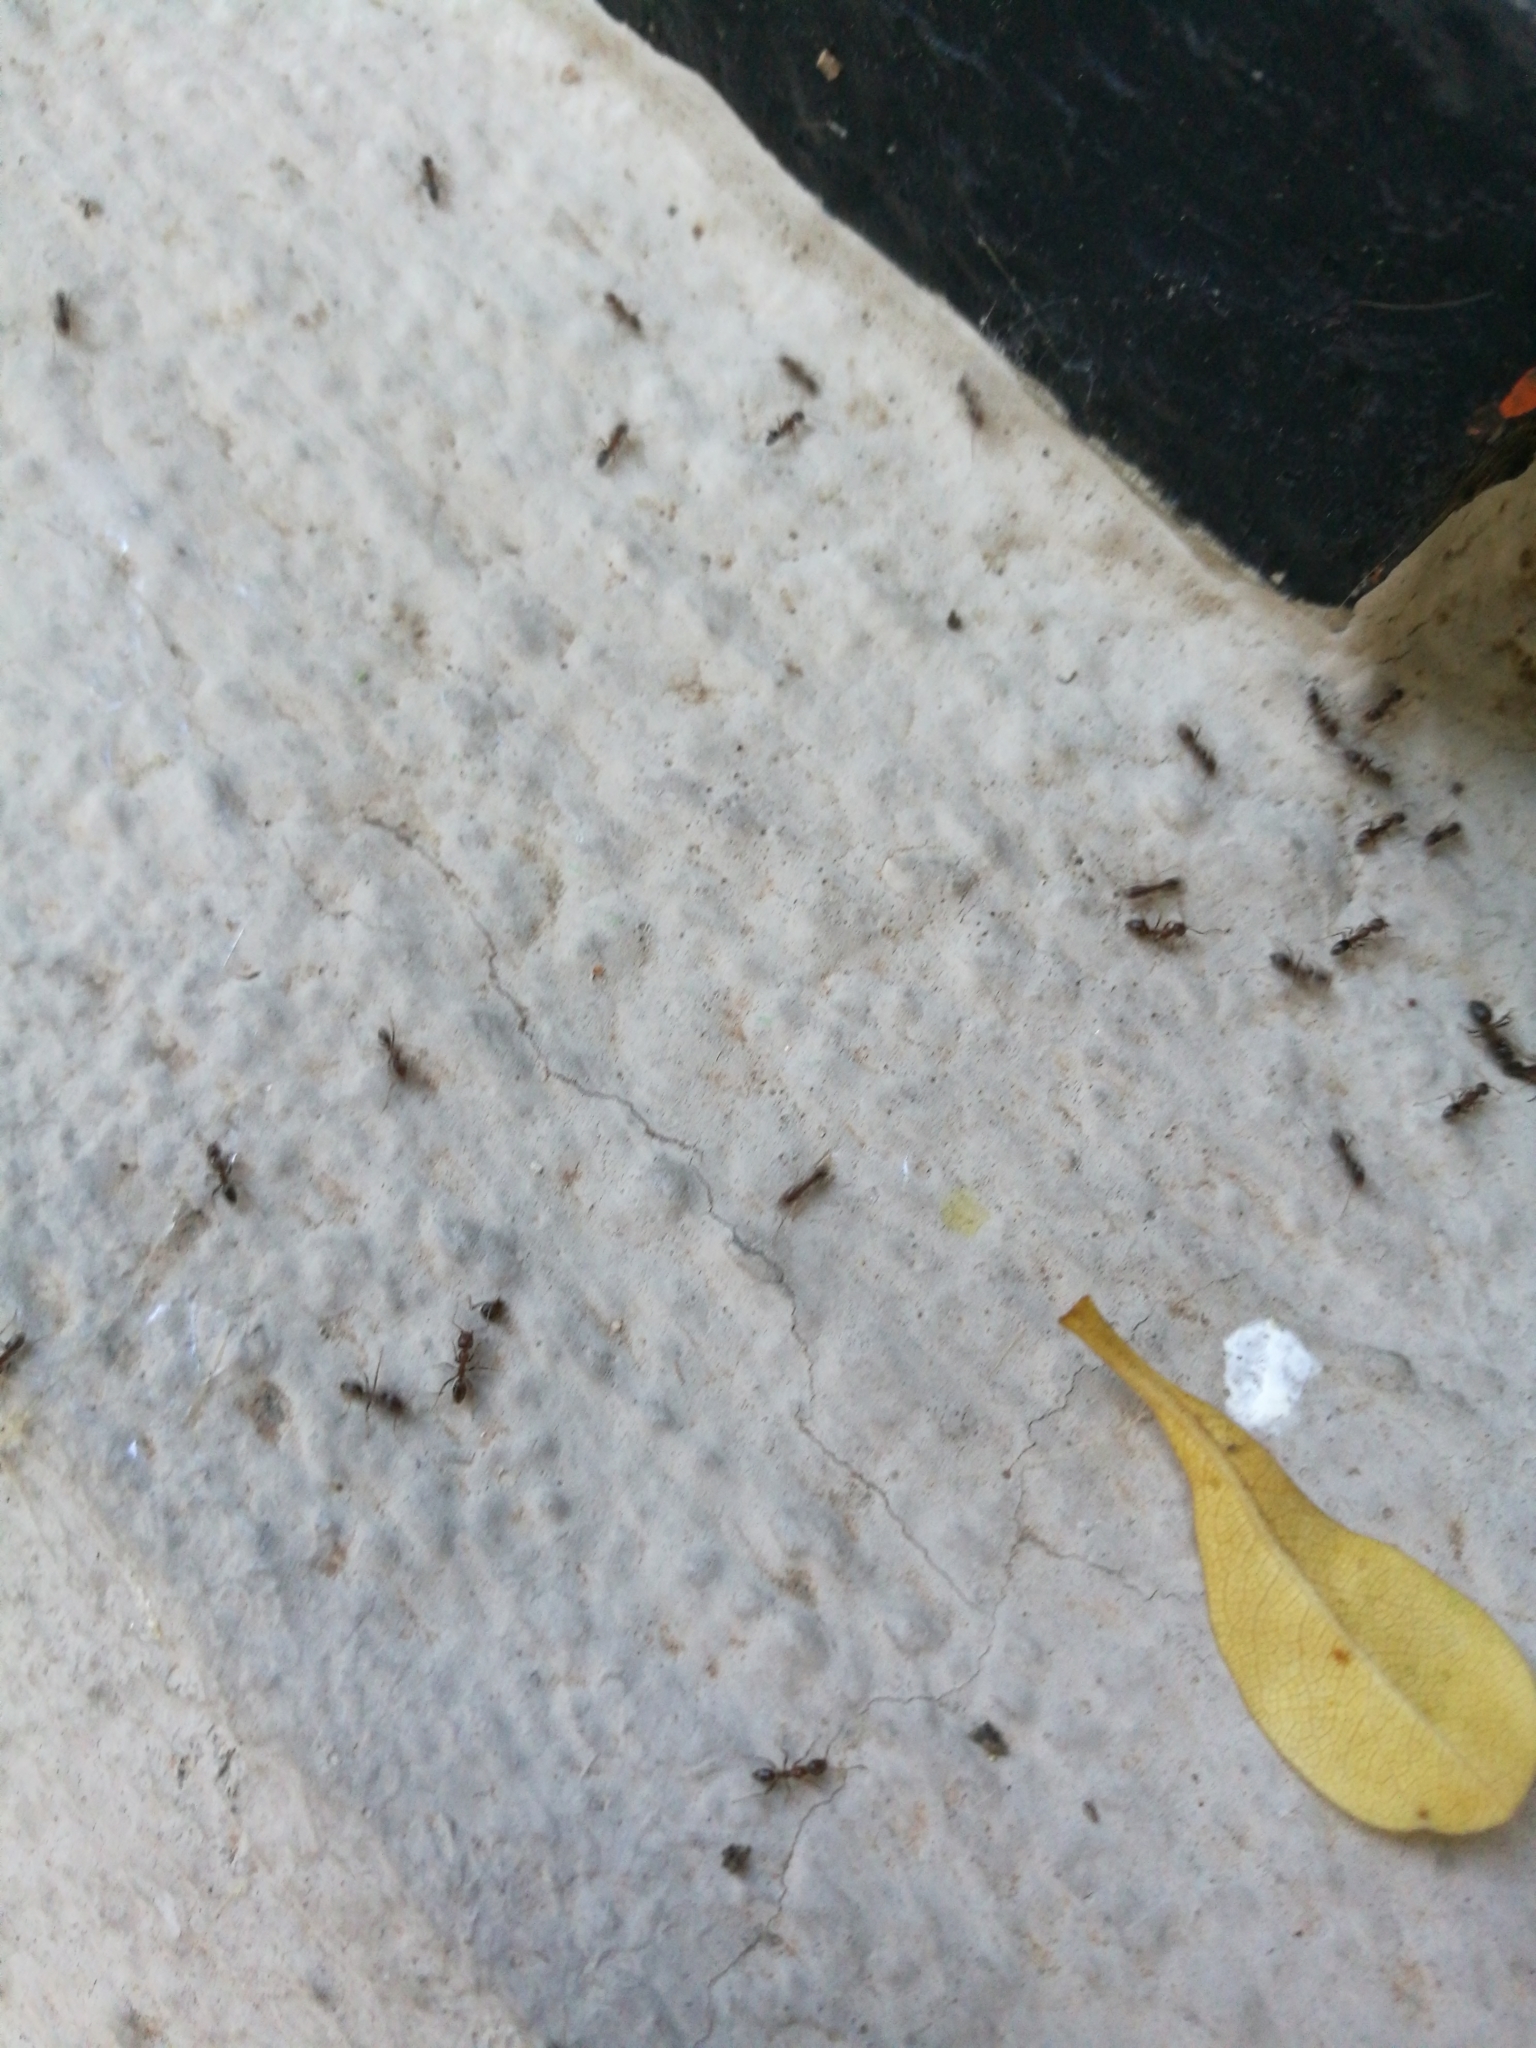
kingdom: Animalia
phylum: Arthropoda
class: Insecta
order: Hymenoptera
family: Formicidae
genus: Linepithema
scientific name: Linepithema humile
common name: Argentine ant
